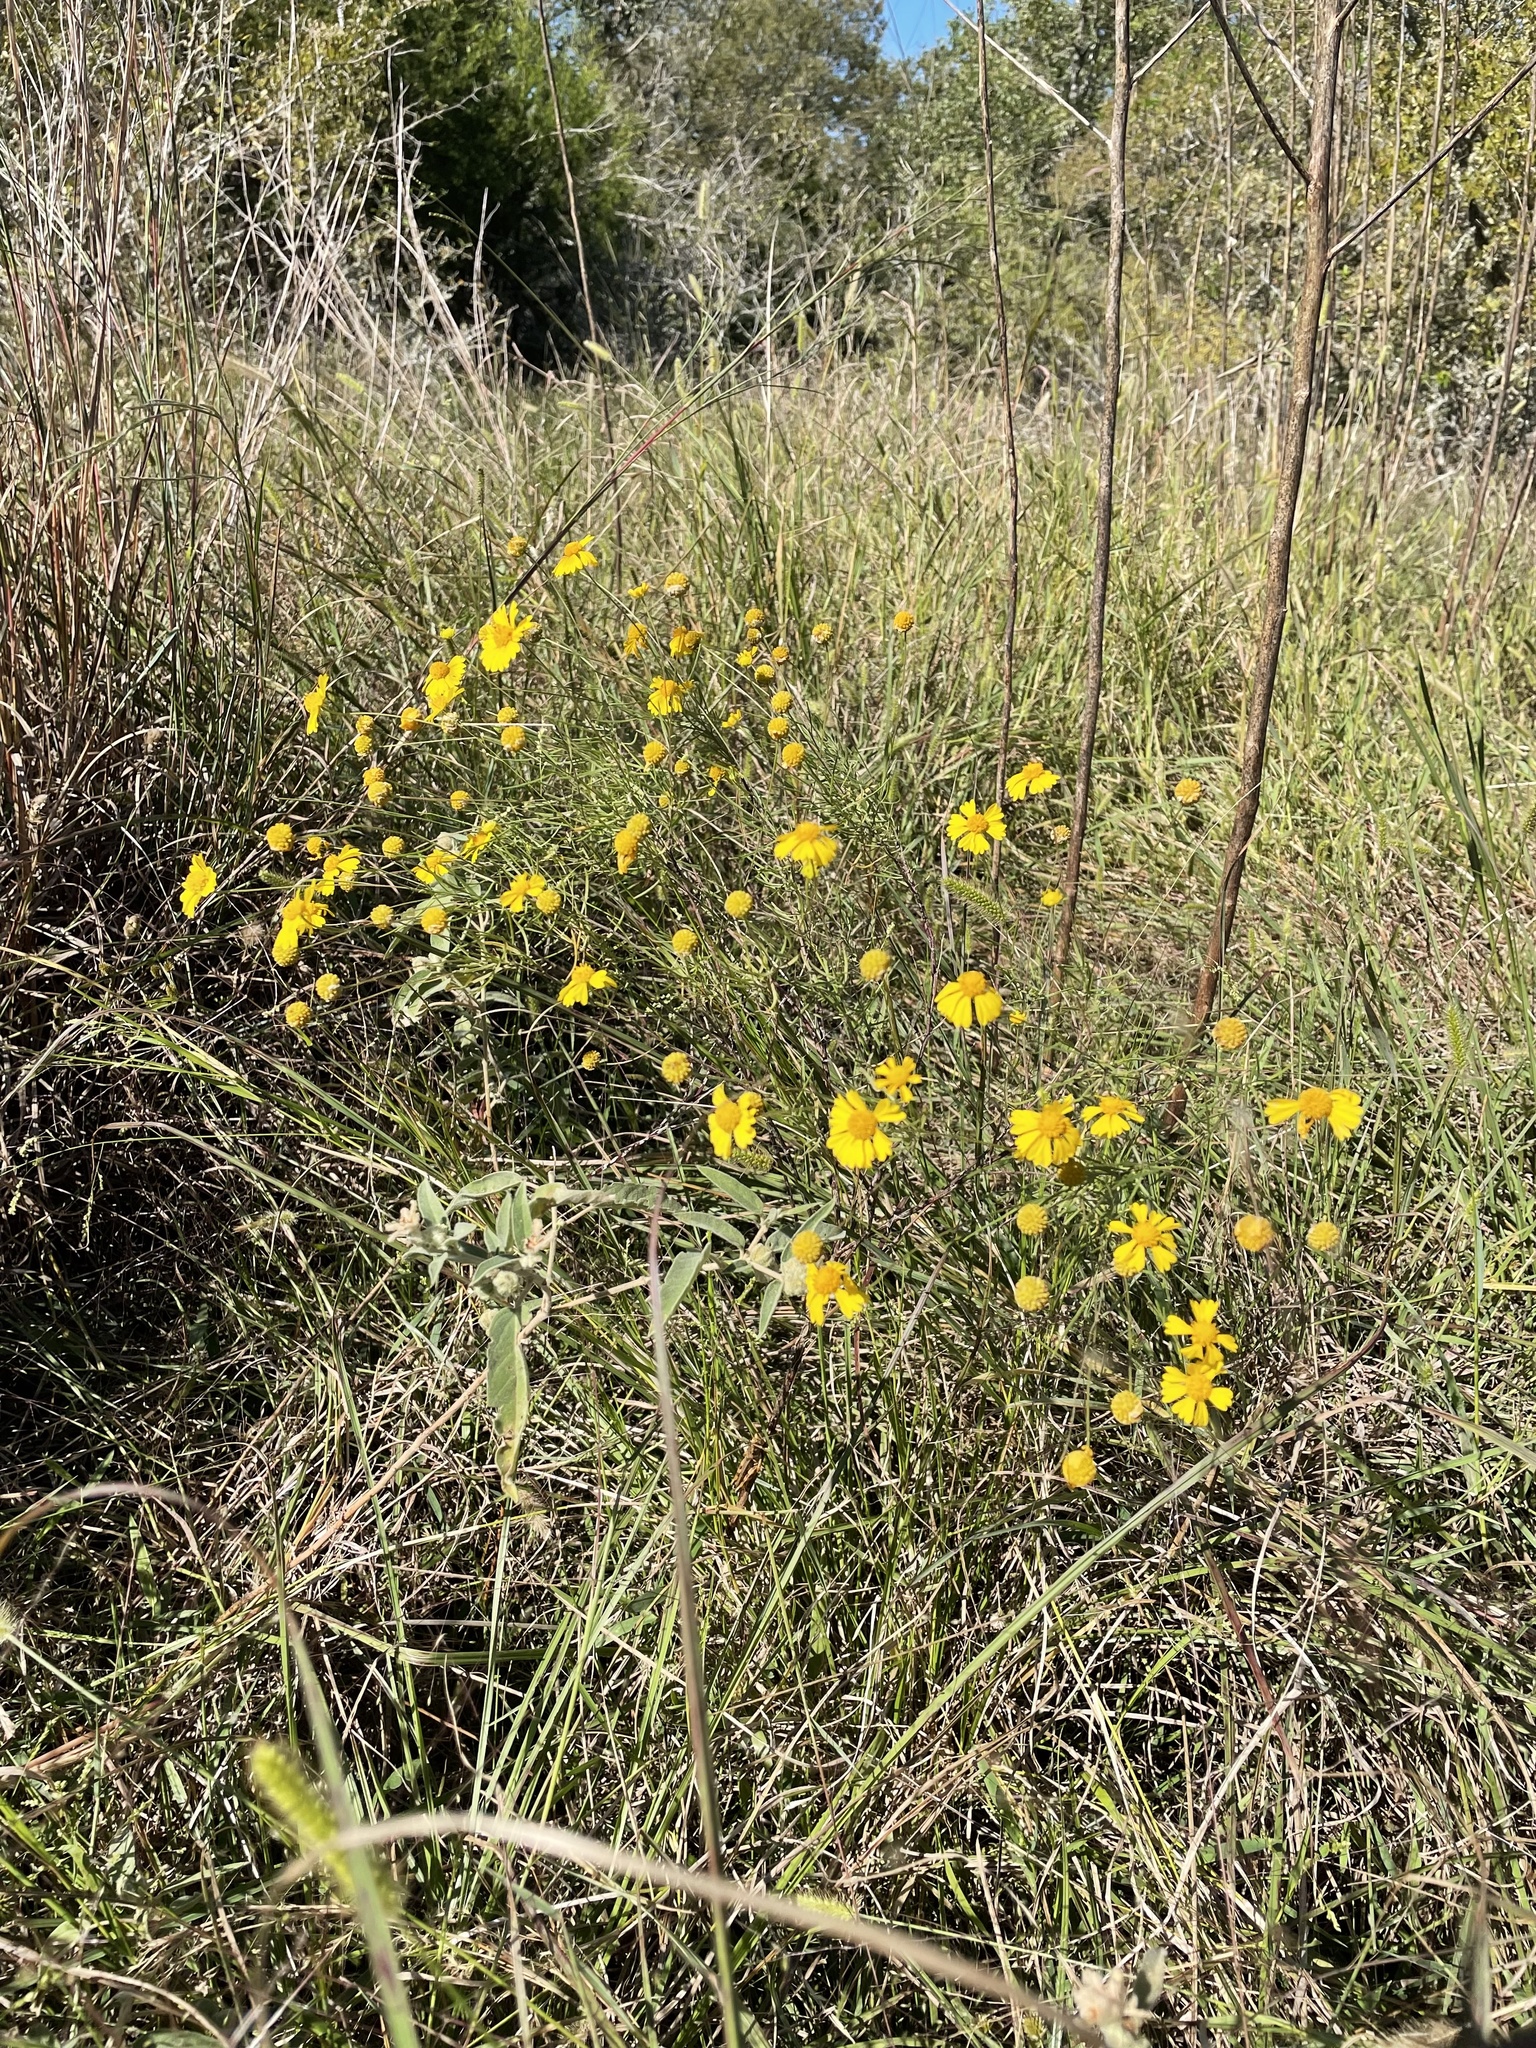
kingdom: Plantae
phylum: Tracheophyta
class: Magnoliopsida
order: Asterales
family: Asteraceae
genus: Helenium
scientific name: Helenium amarum
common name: Bitter sneezeweed
